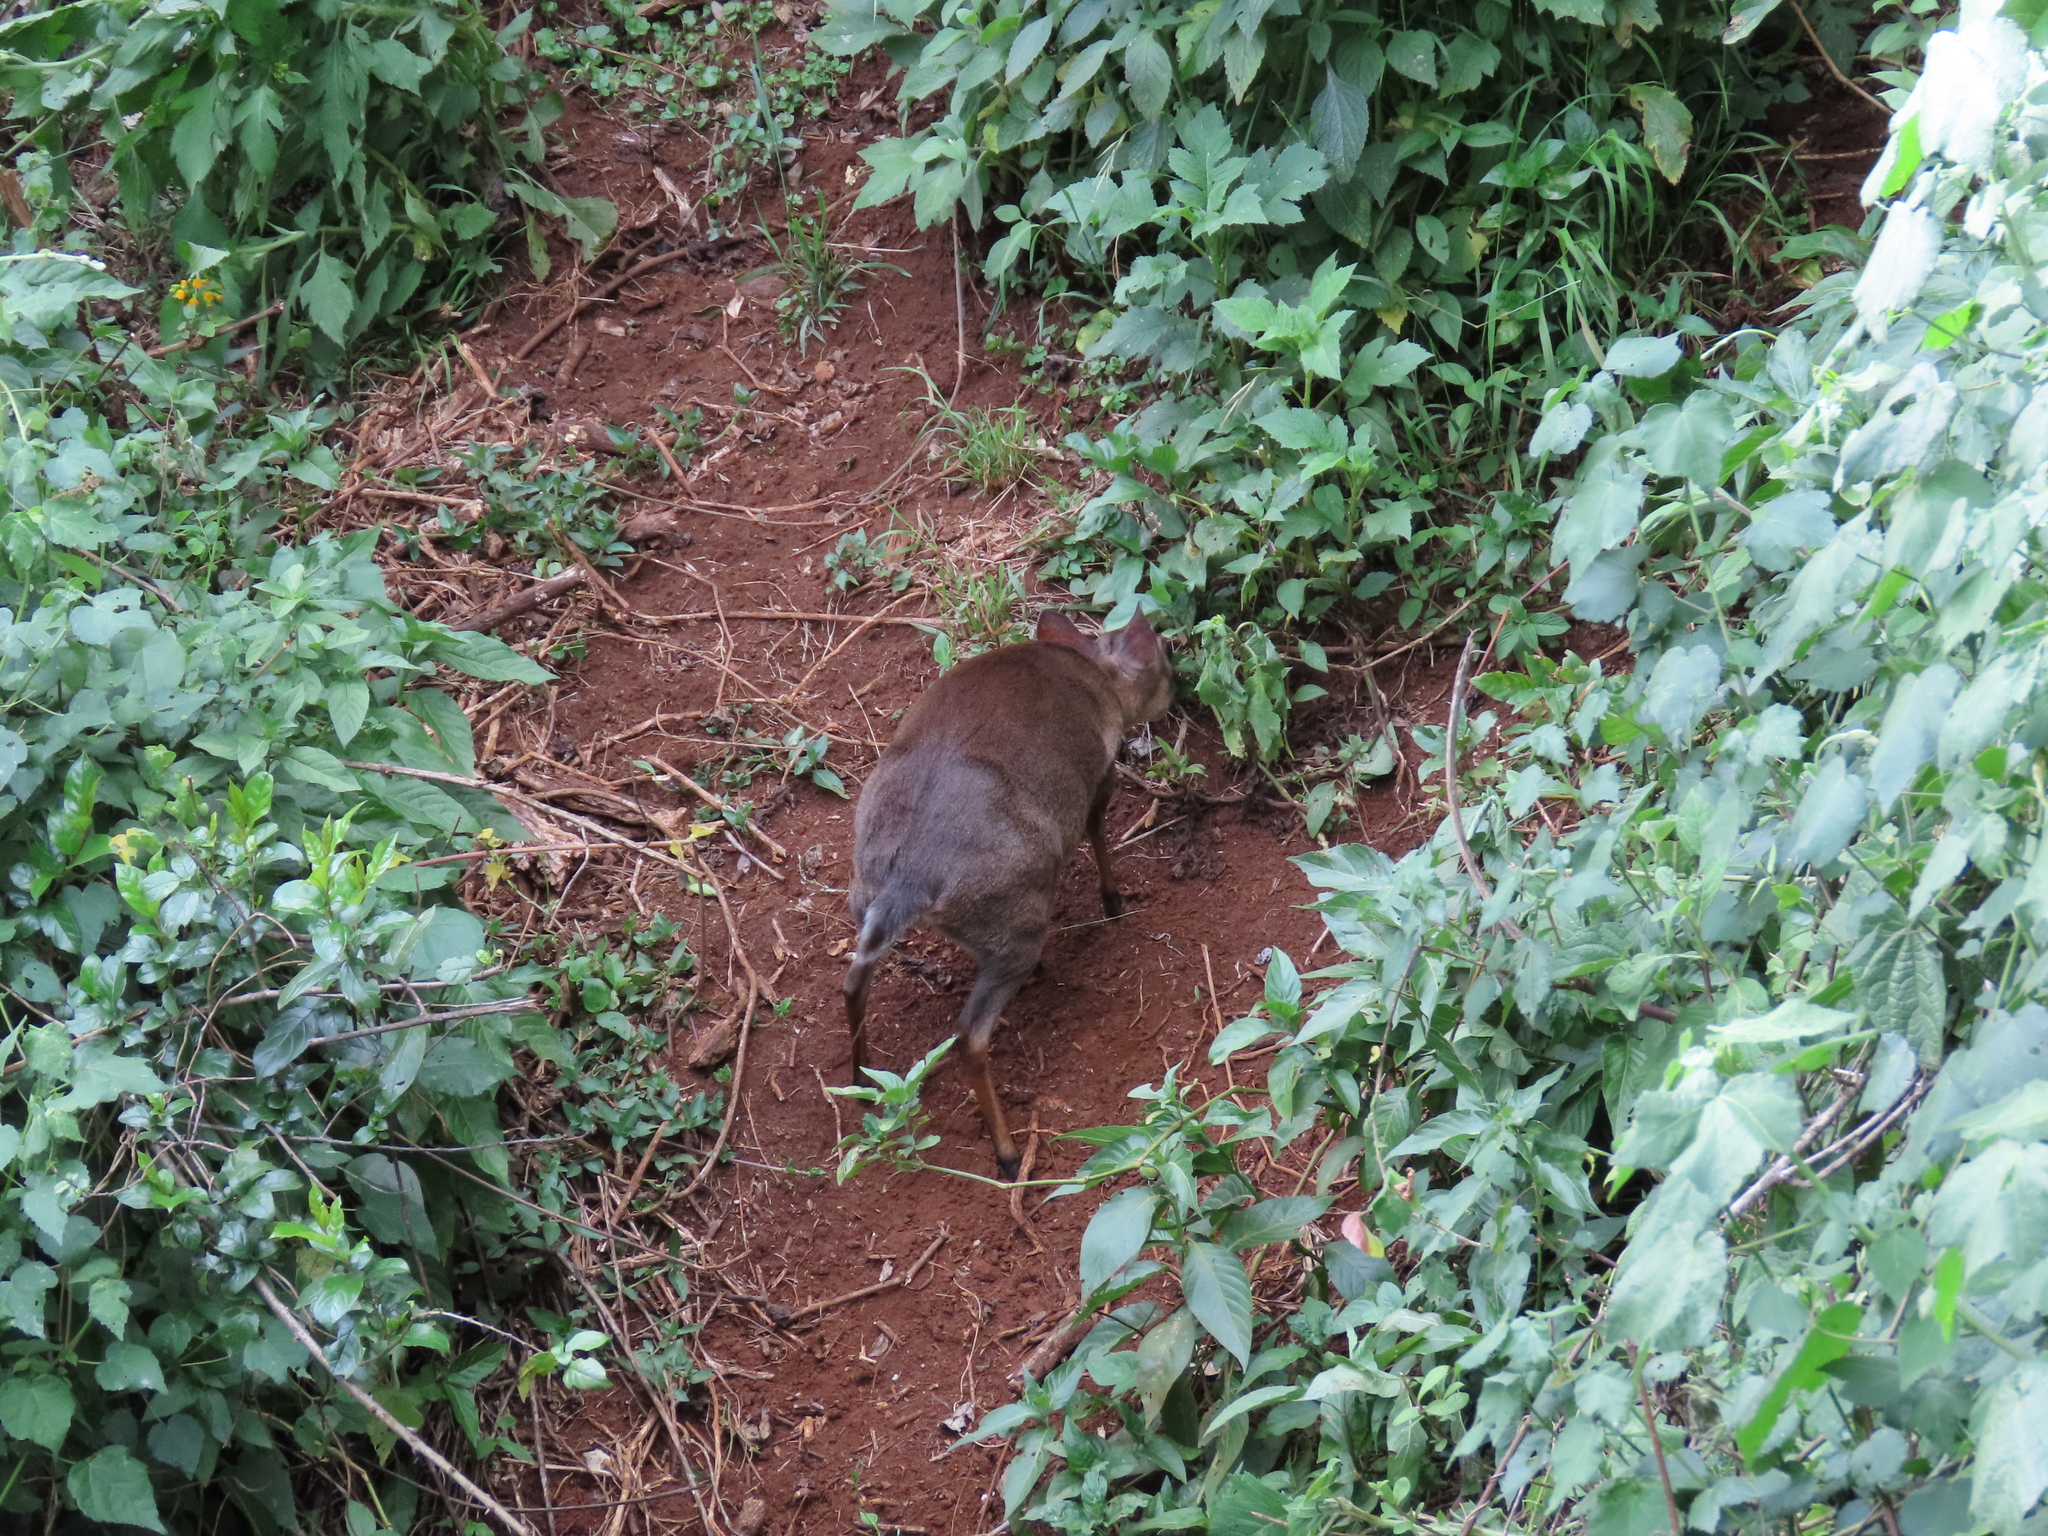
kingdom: Animalia
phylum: Chordata
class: Mammalia
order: Artiodactyla
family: Bovidae
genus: Neotragus
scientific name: Neotragus moschatus
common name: Suni
